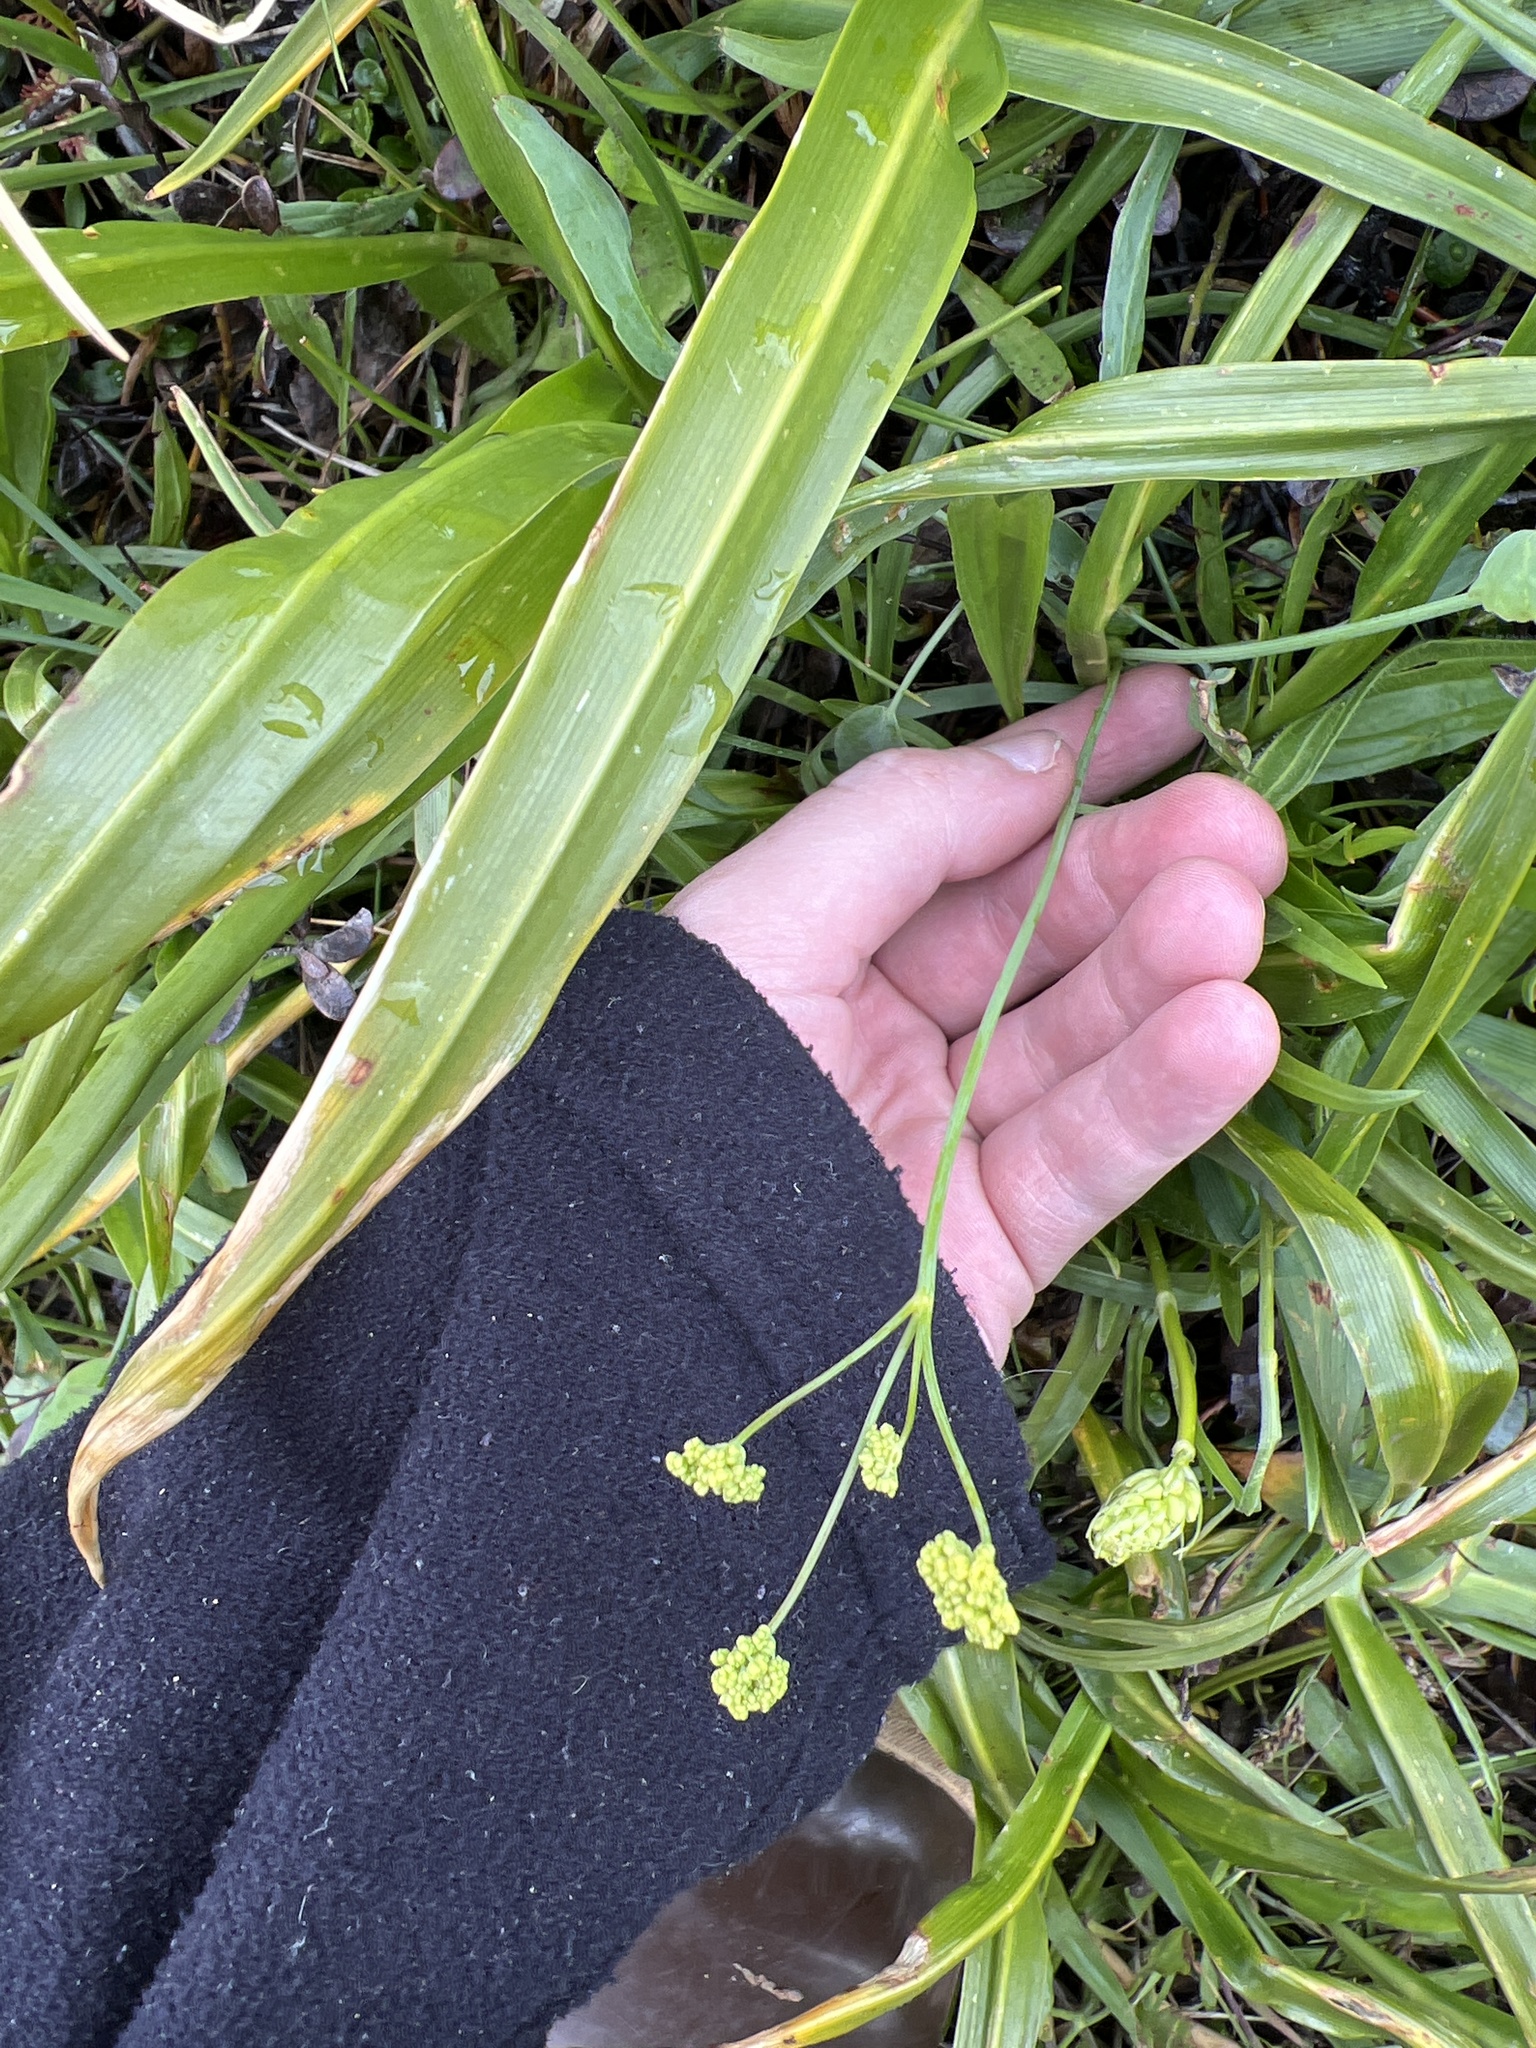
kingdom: Plantae
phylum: Tracheophyta
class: Magnoliopsida
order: Apiales
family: Apiaceae
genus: Lomatium
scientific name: Lomatium nudicaule
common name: Pestle lomatium
